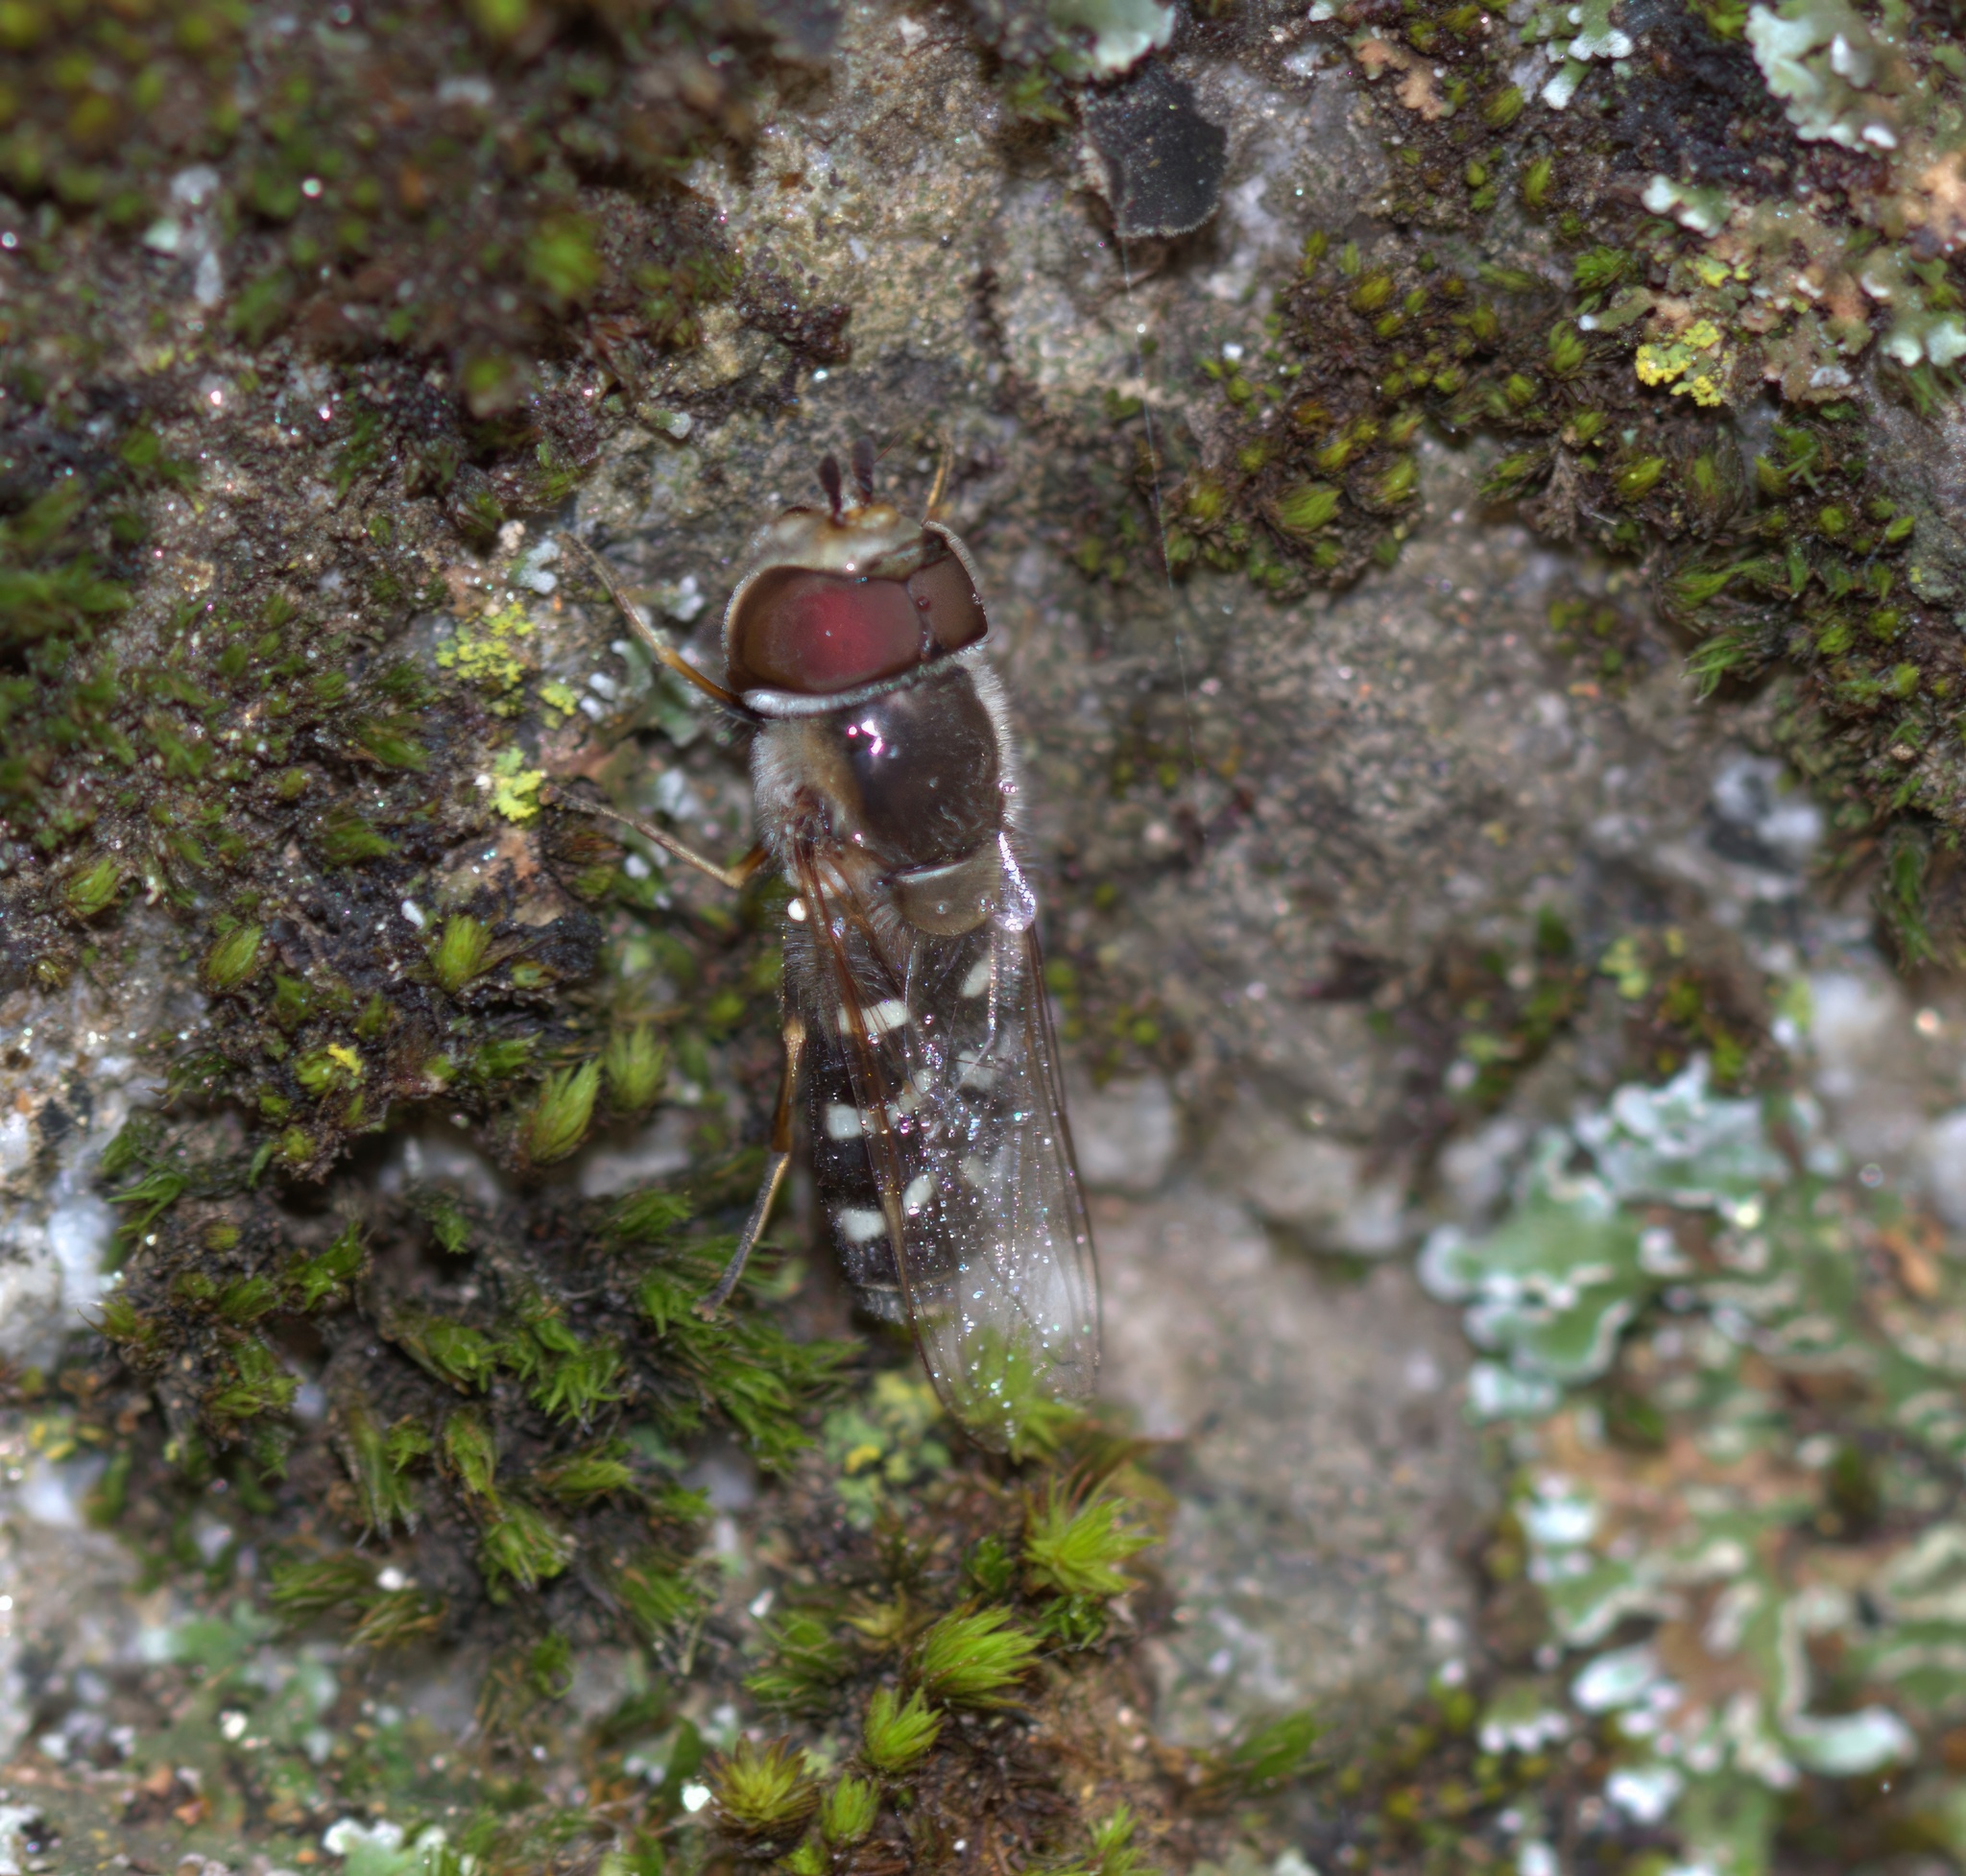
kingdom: Animalia
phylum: Arthropoda
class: Insecta
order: Diptera
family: Syrphidae
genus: Scaeva
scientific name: Scaeva affinis
